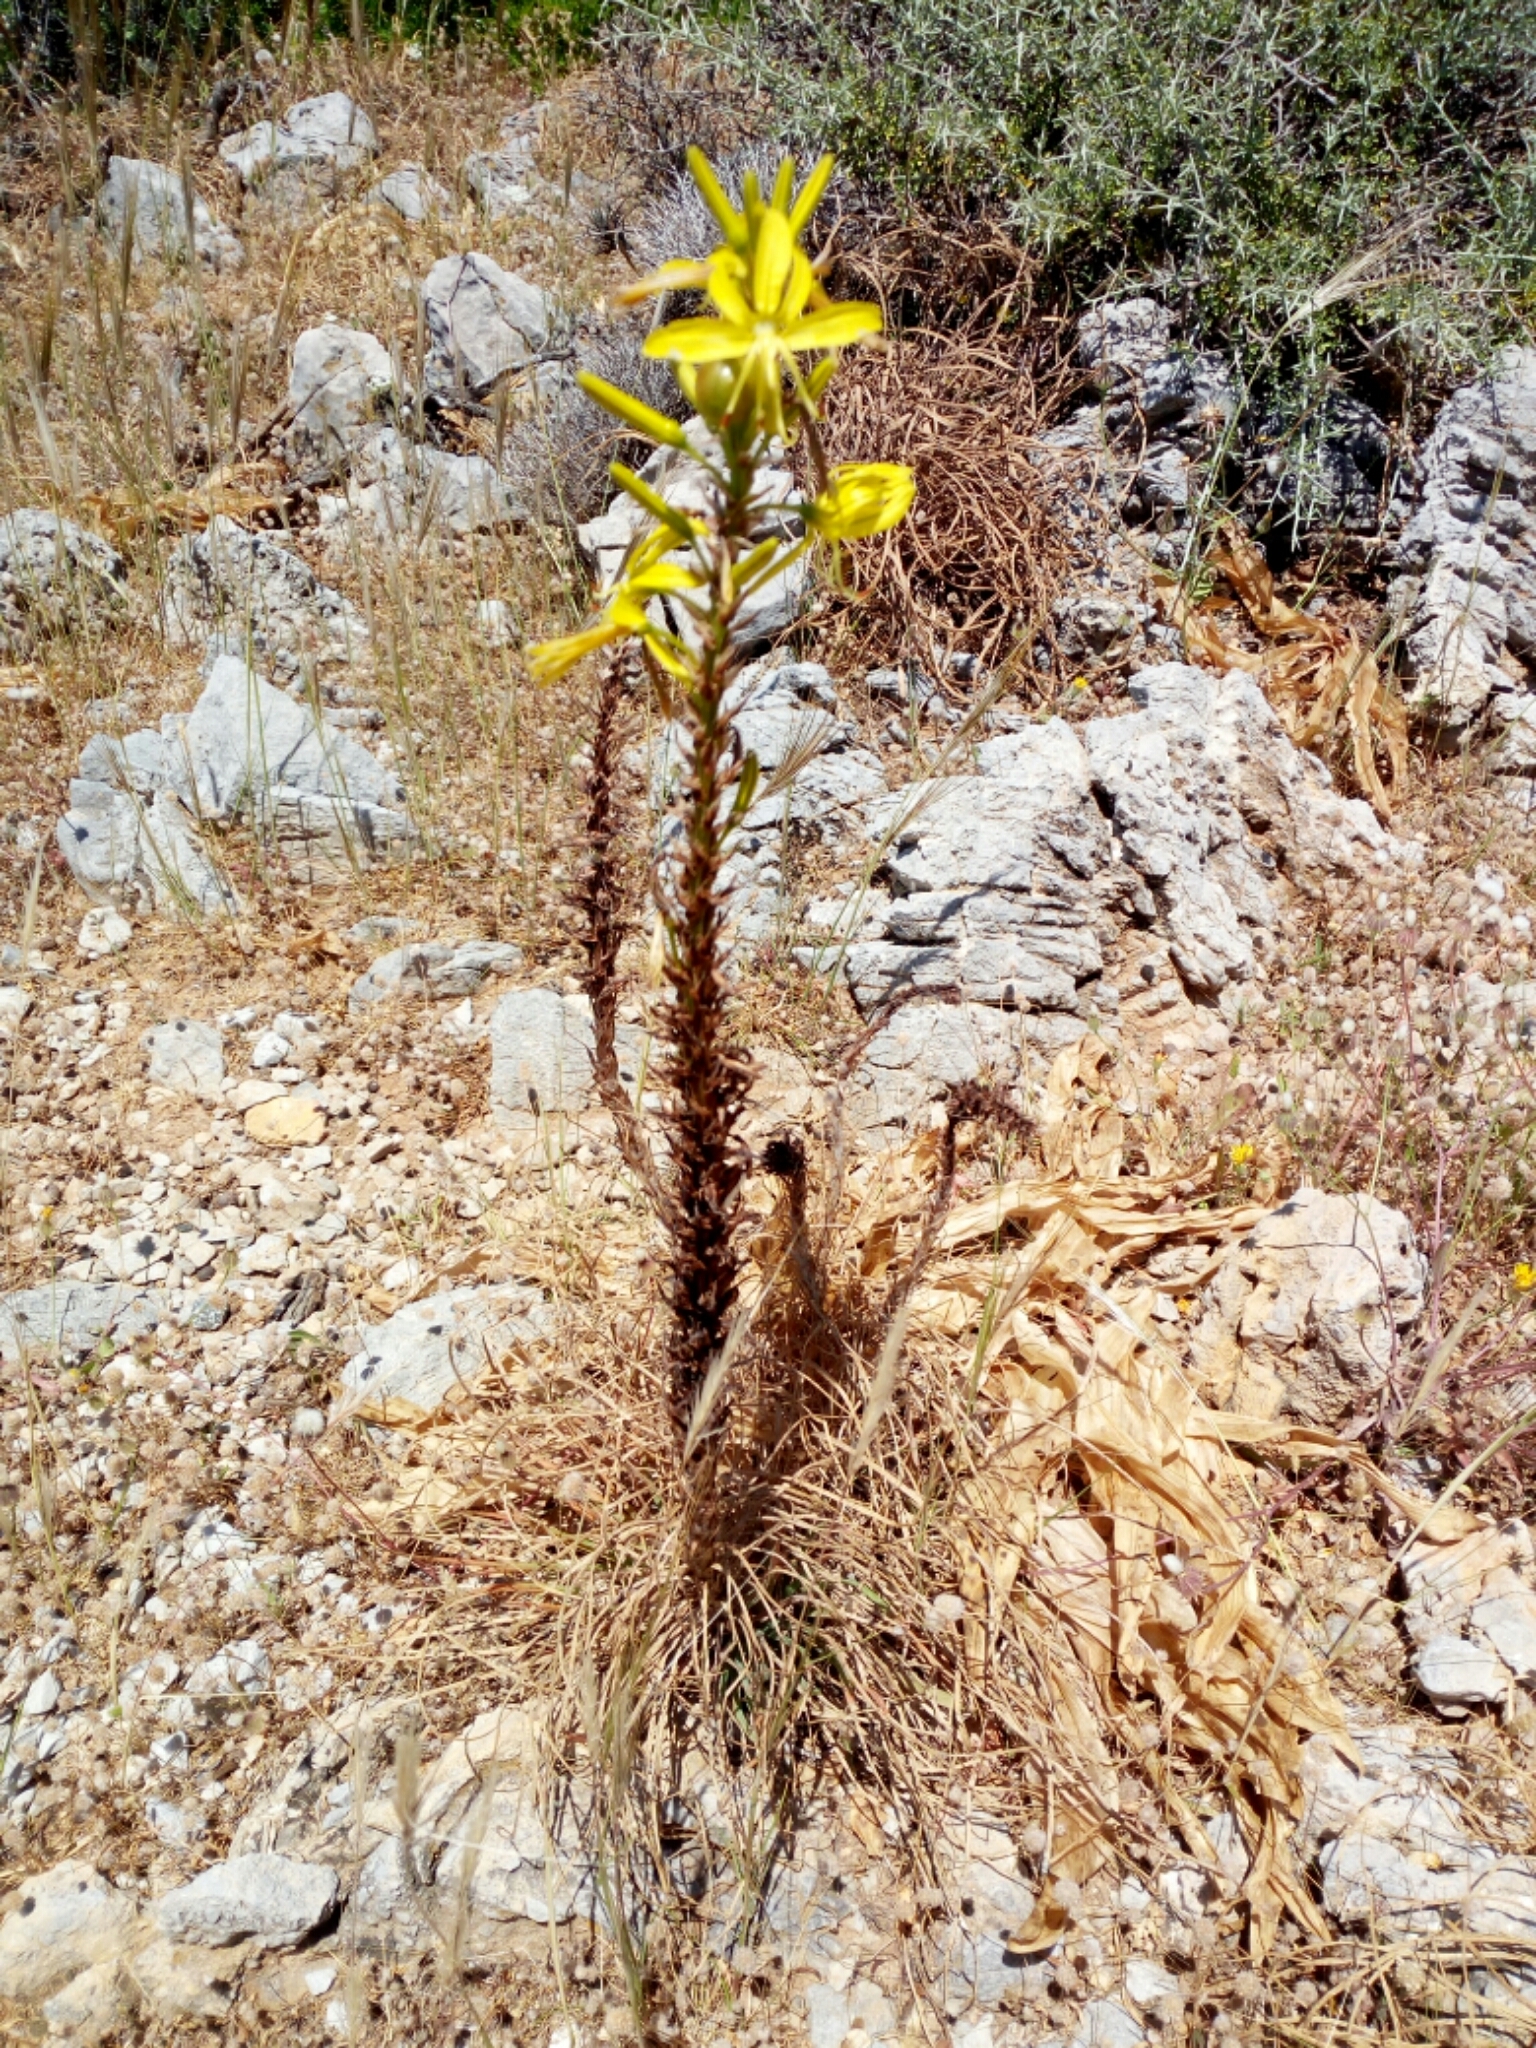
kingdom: Plantae
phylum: Tracheophyta
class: Liliopsida
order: Asparagales
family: Asphodelaceae
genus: Asphodeline
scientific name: Asphodeline lutea
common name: Yellow asphodel
